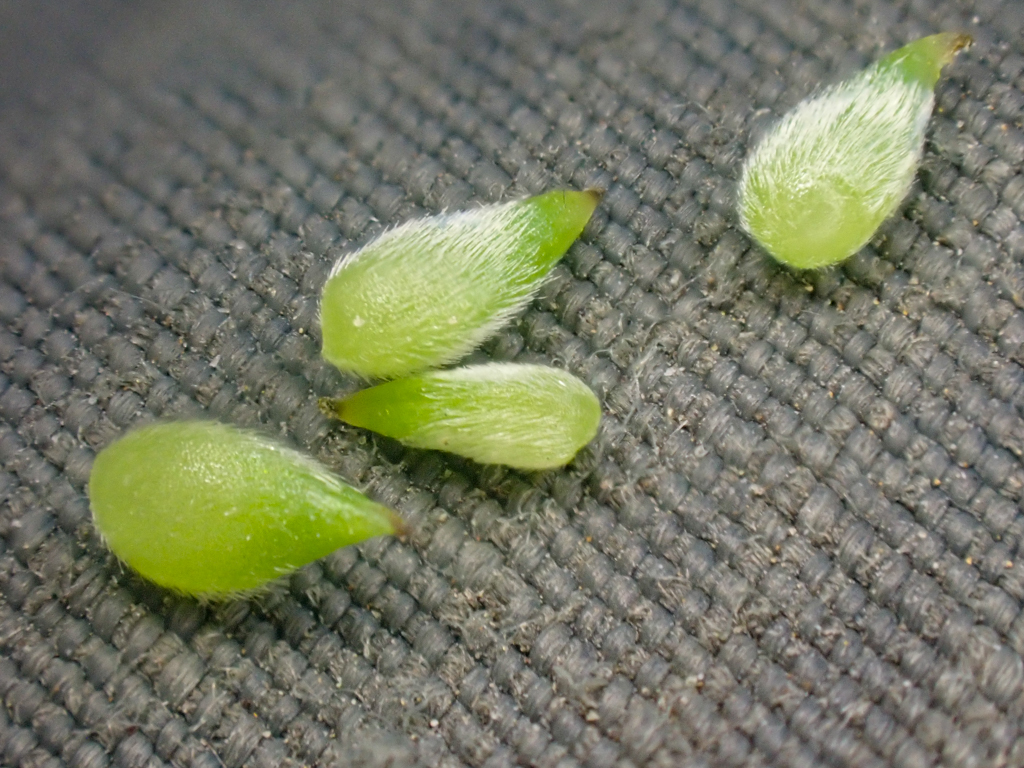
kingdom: Plantae
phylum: Tracheophyta
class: Magnoliopsida
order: Ranunculales
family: Ranunculaceae
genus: Anemone
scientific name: Anemone
